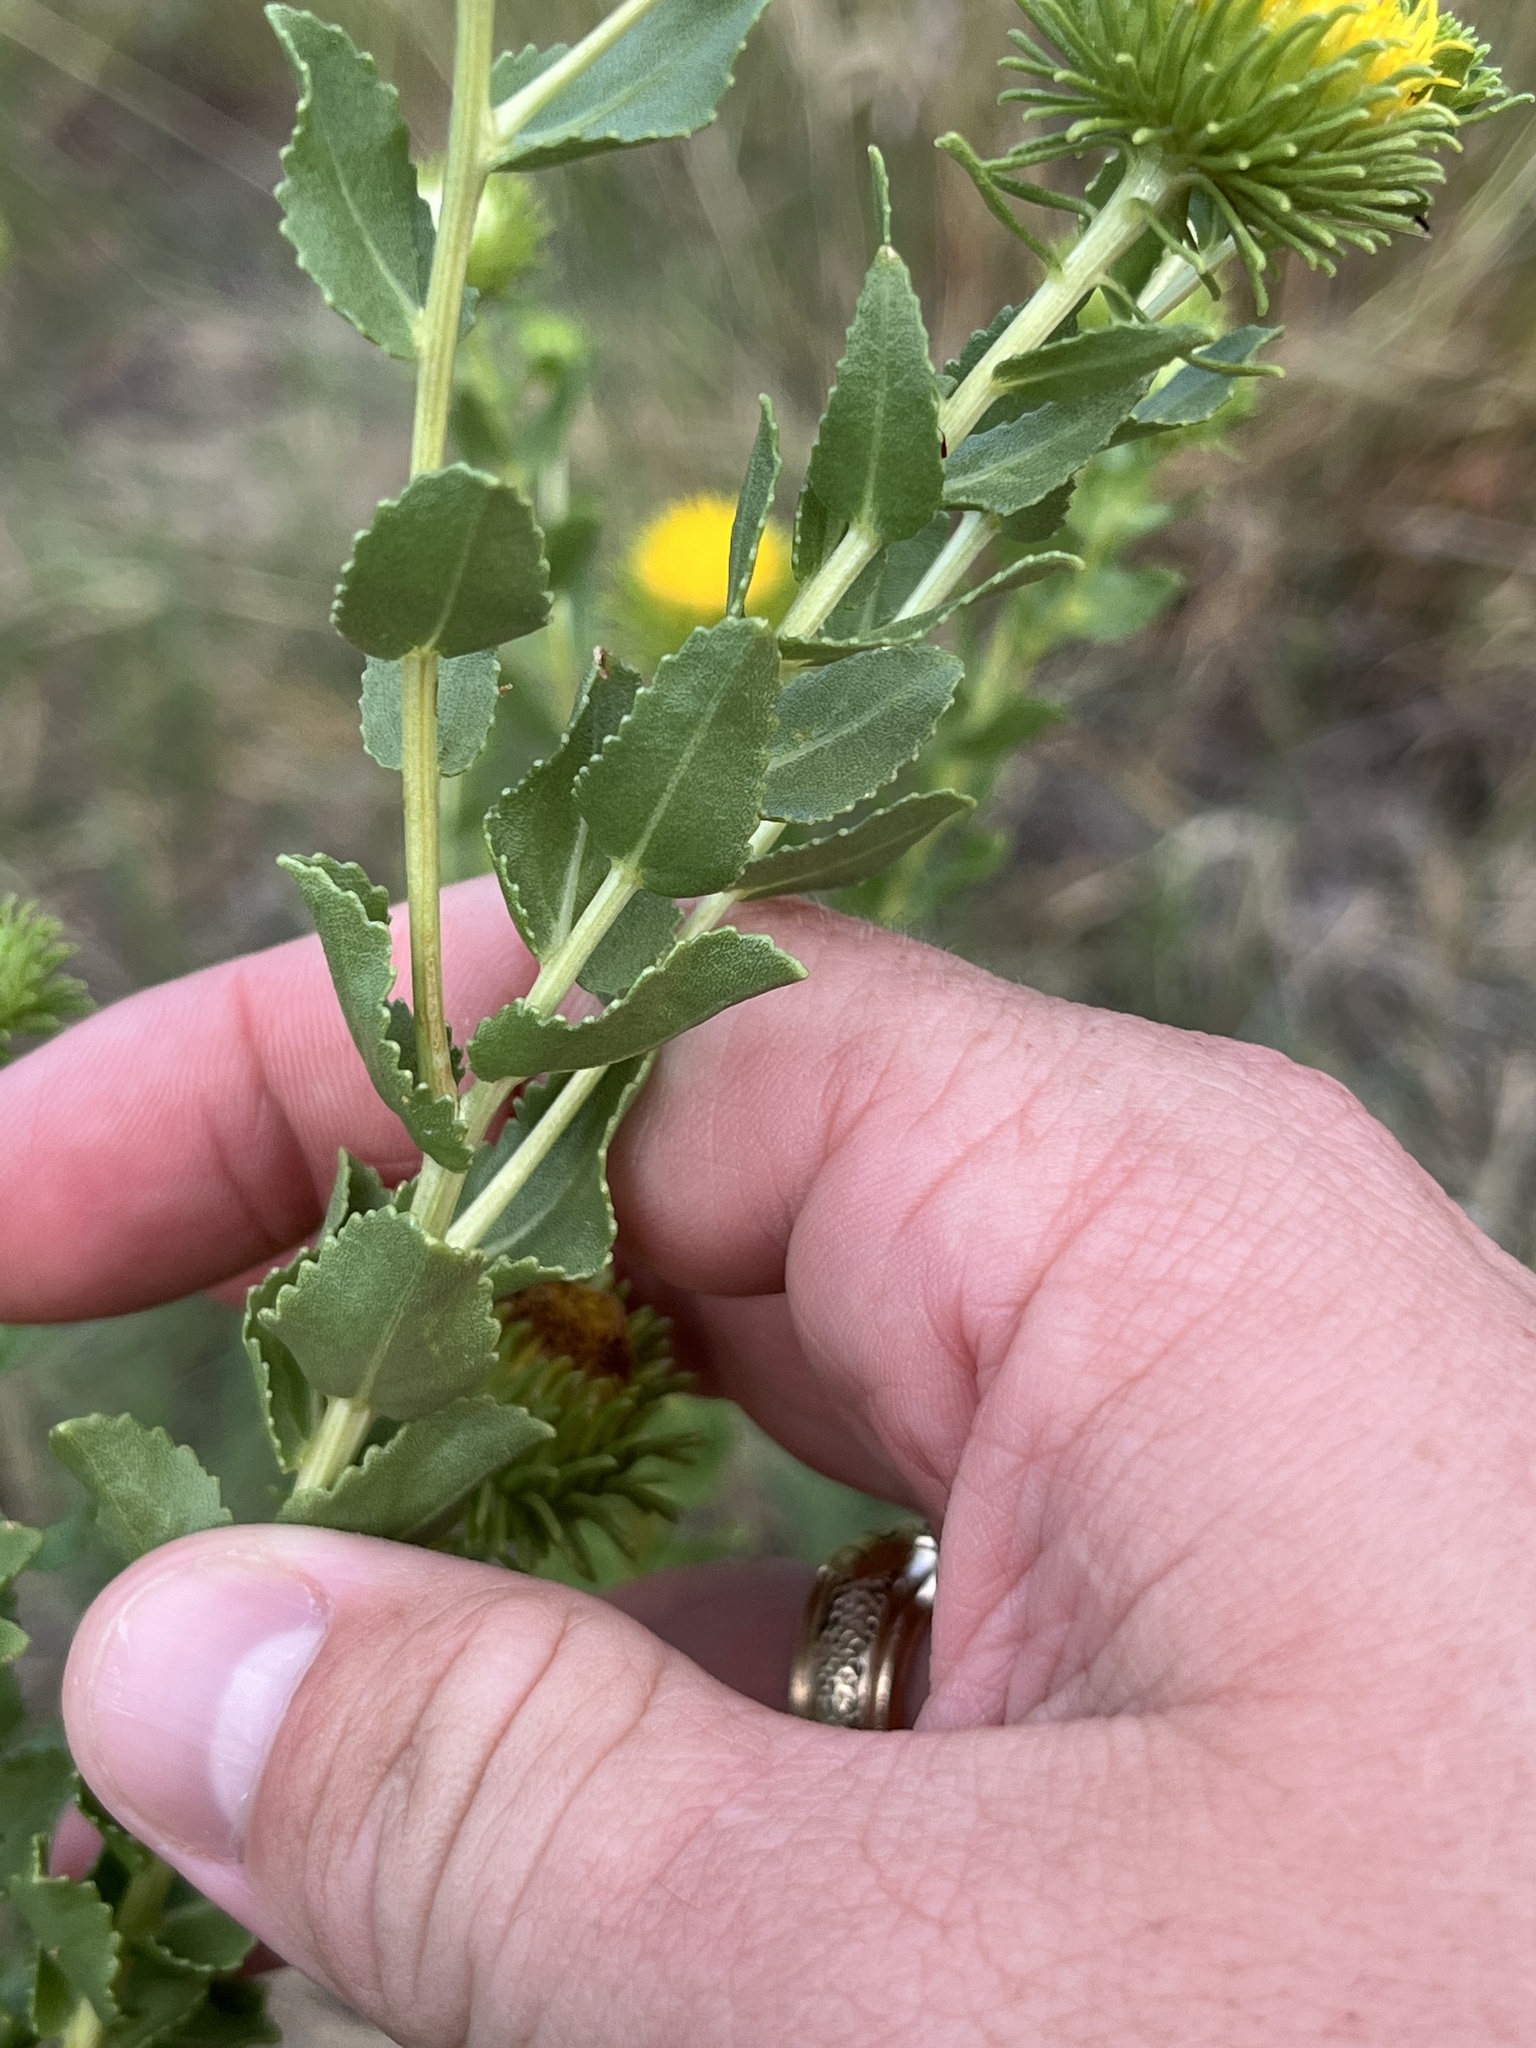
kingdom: Plantae
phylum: Tracheophyta
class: Magnoliopsida
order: Asterales
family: Asteraceae
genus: Grindelia
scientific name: Grindelia nuda
